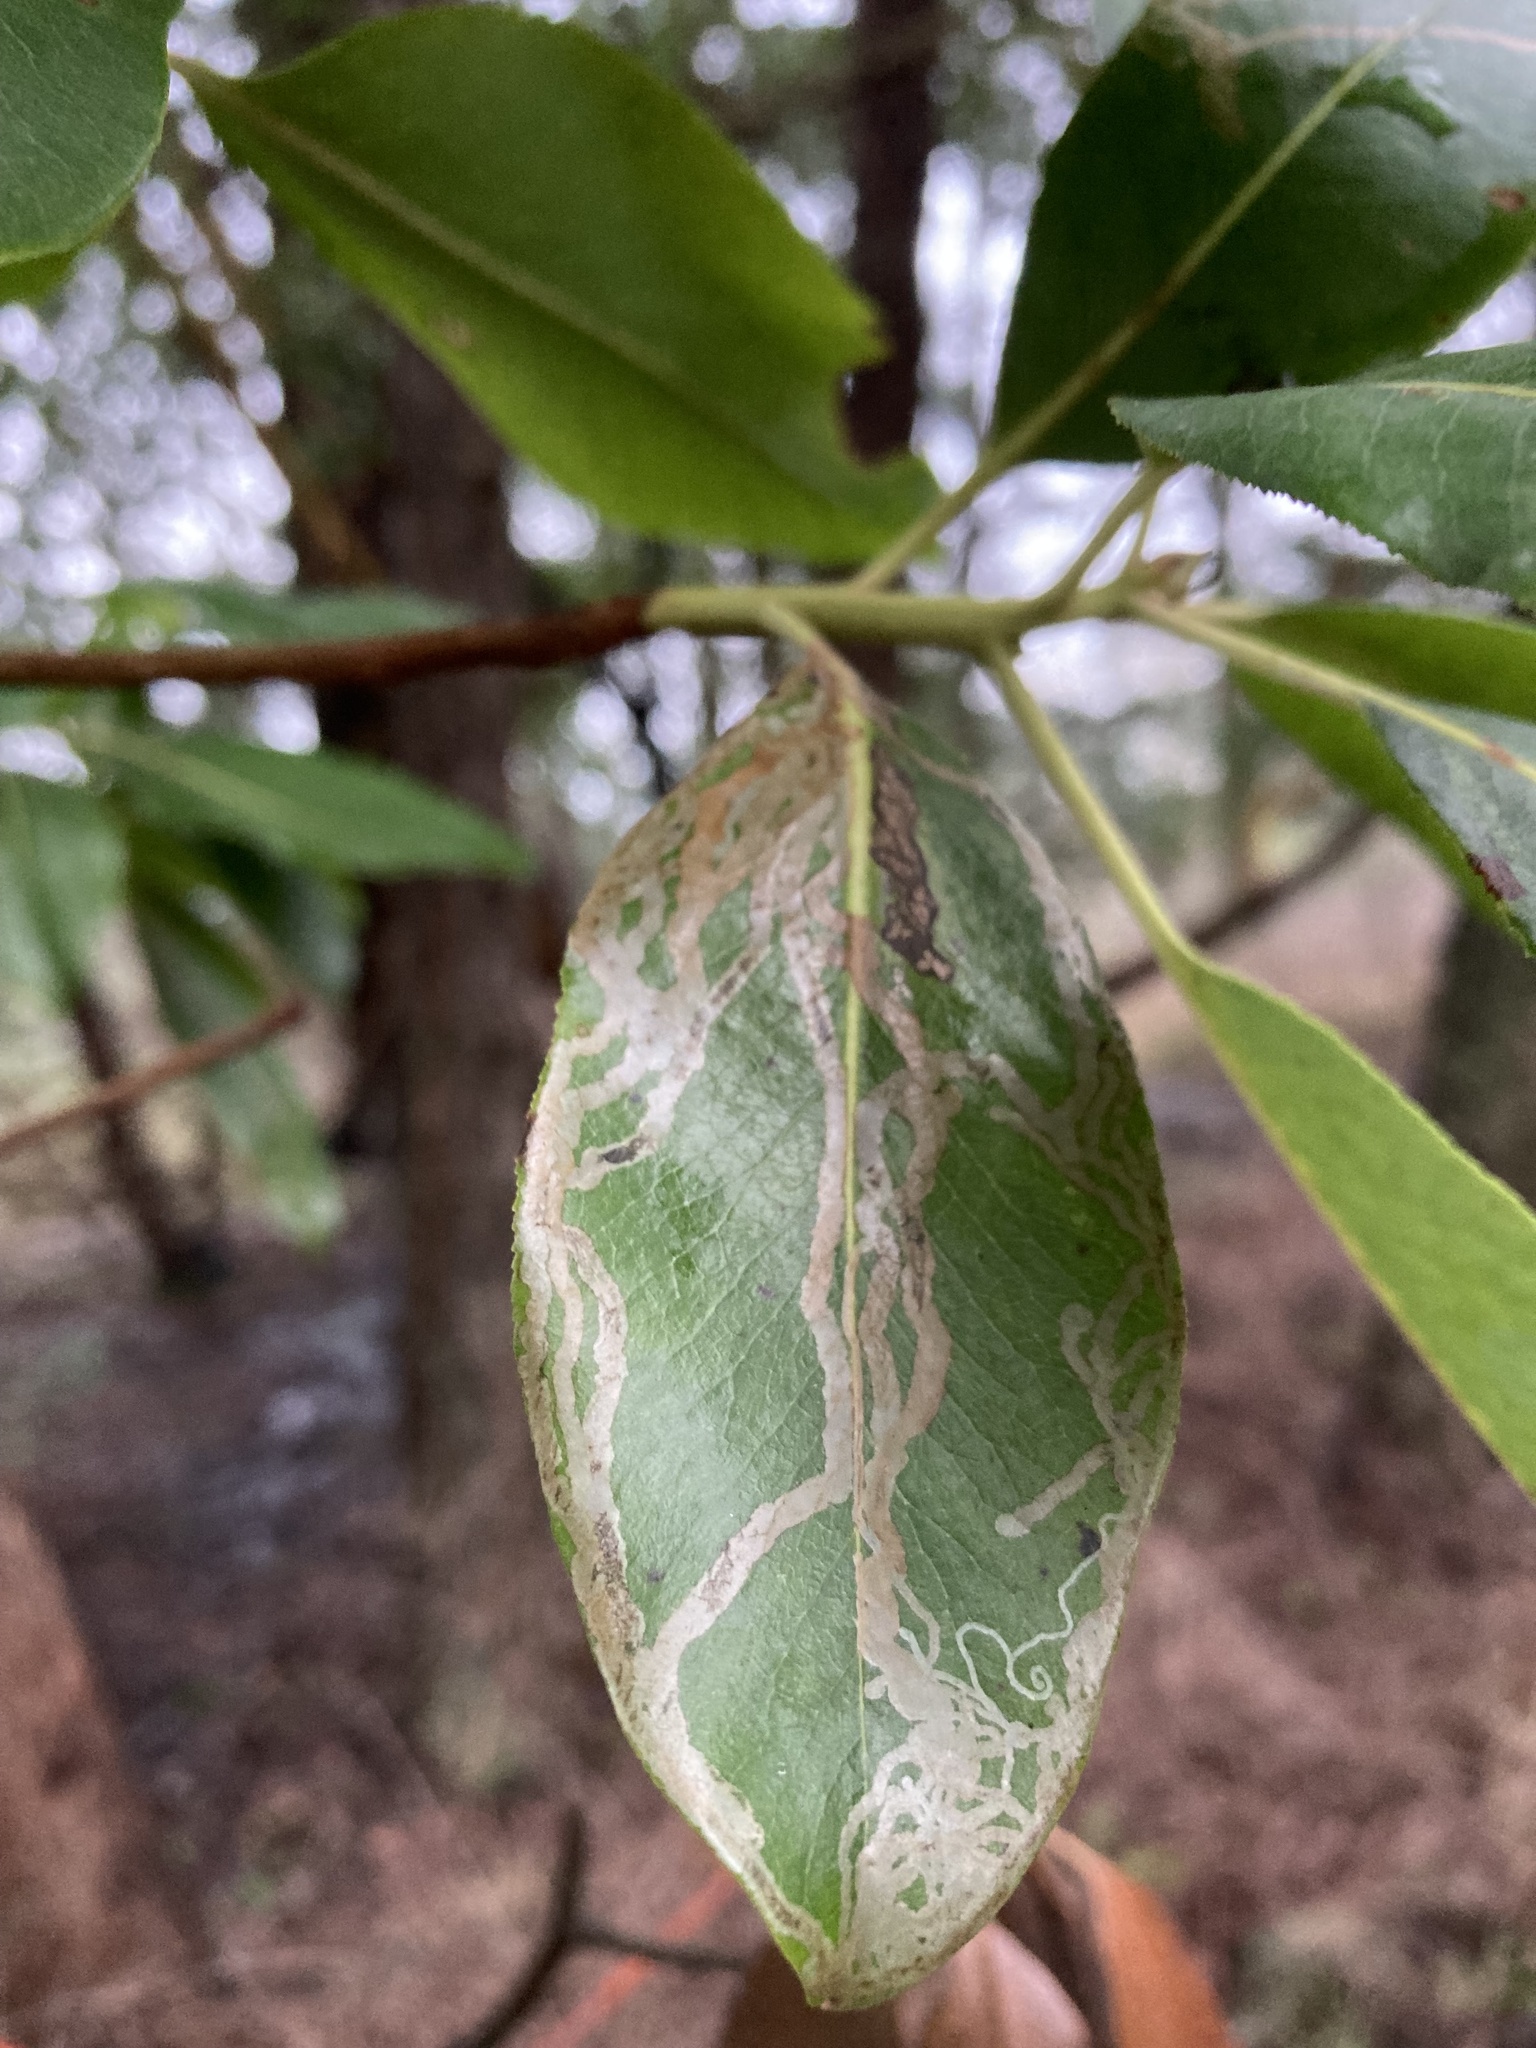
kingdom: Animalia
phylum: Arthropoda
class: Insecta
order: Lepidoptera
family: Gracillariidae
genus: Marmara
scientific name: Marmara arbutiella
